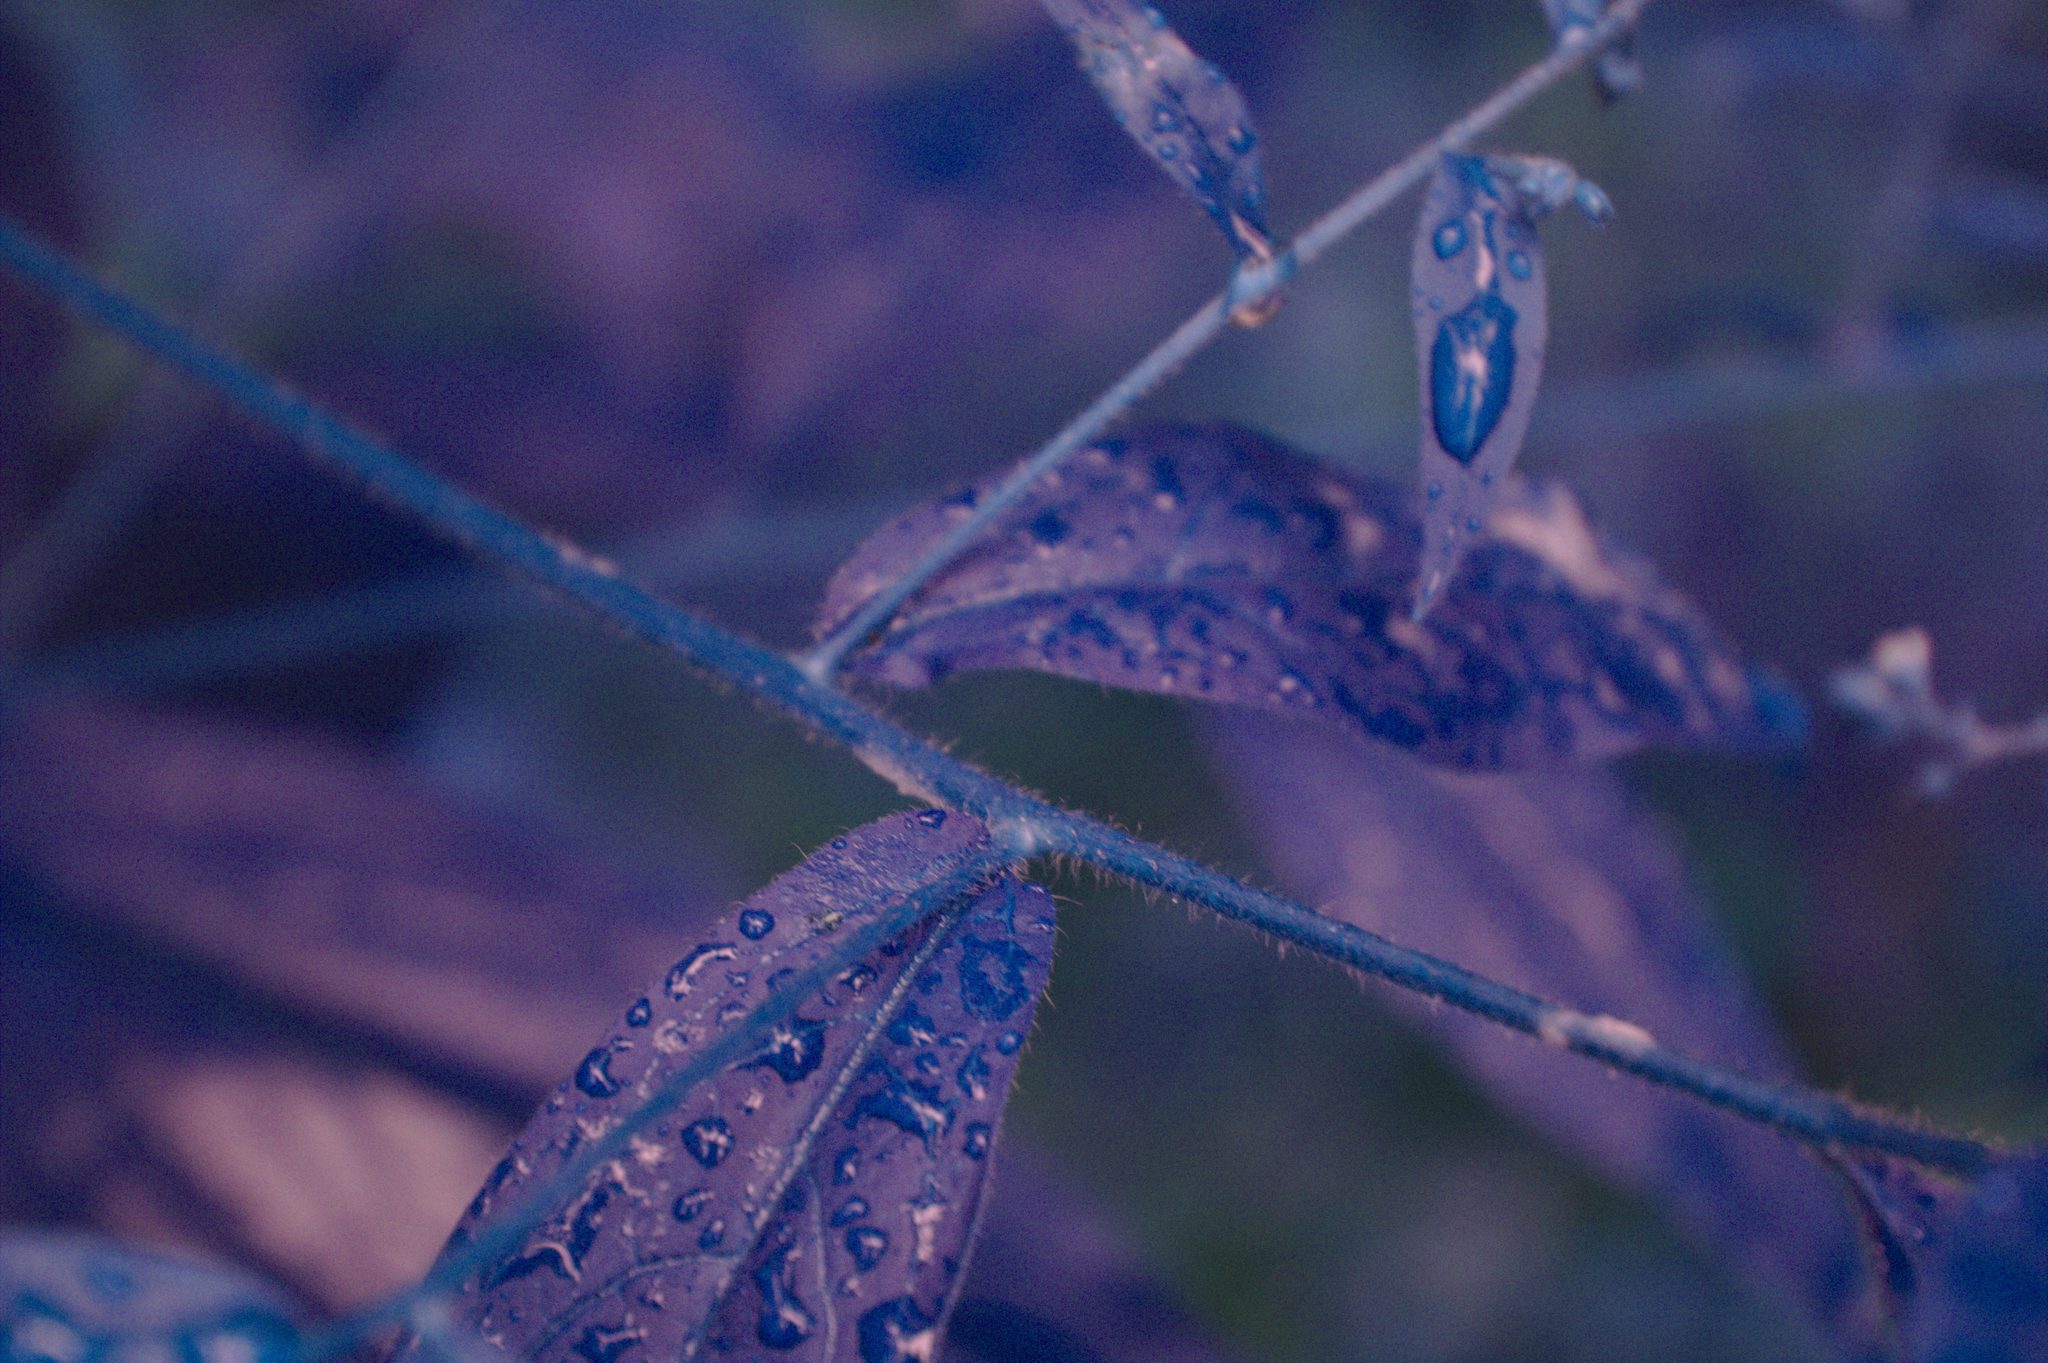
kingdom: Plantae
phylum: Tracheophyta
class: Magnoliopsida
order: Boraginales
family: Boraginaceae
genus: Hackelia
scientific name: Hackelia virginiana
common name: Beggar's-lice
